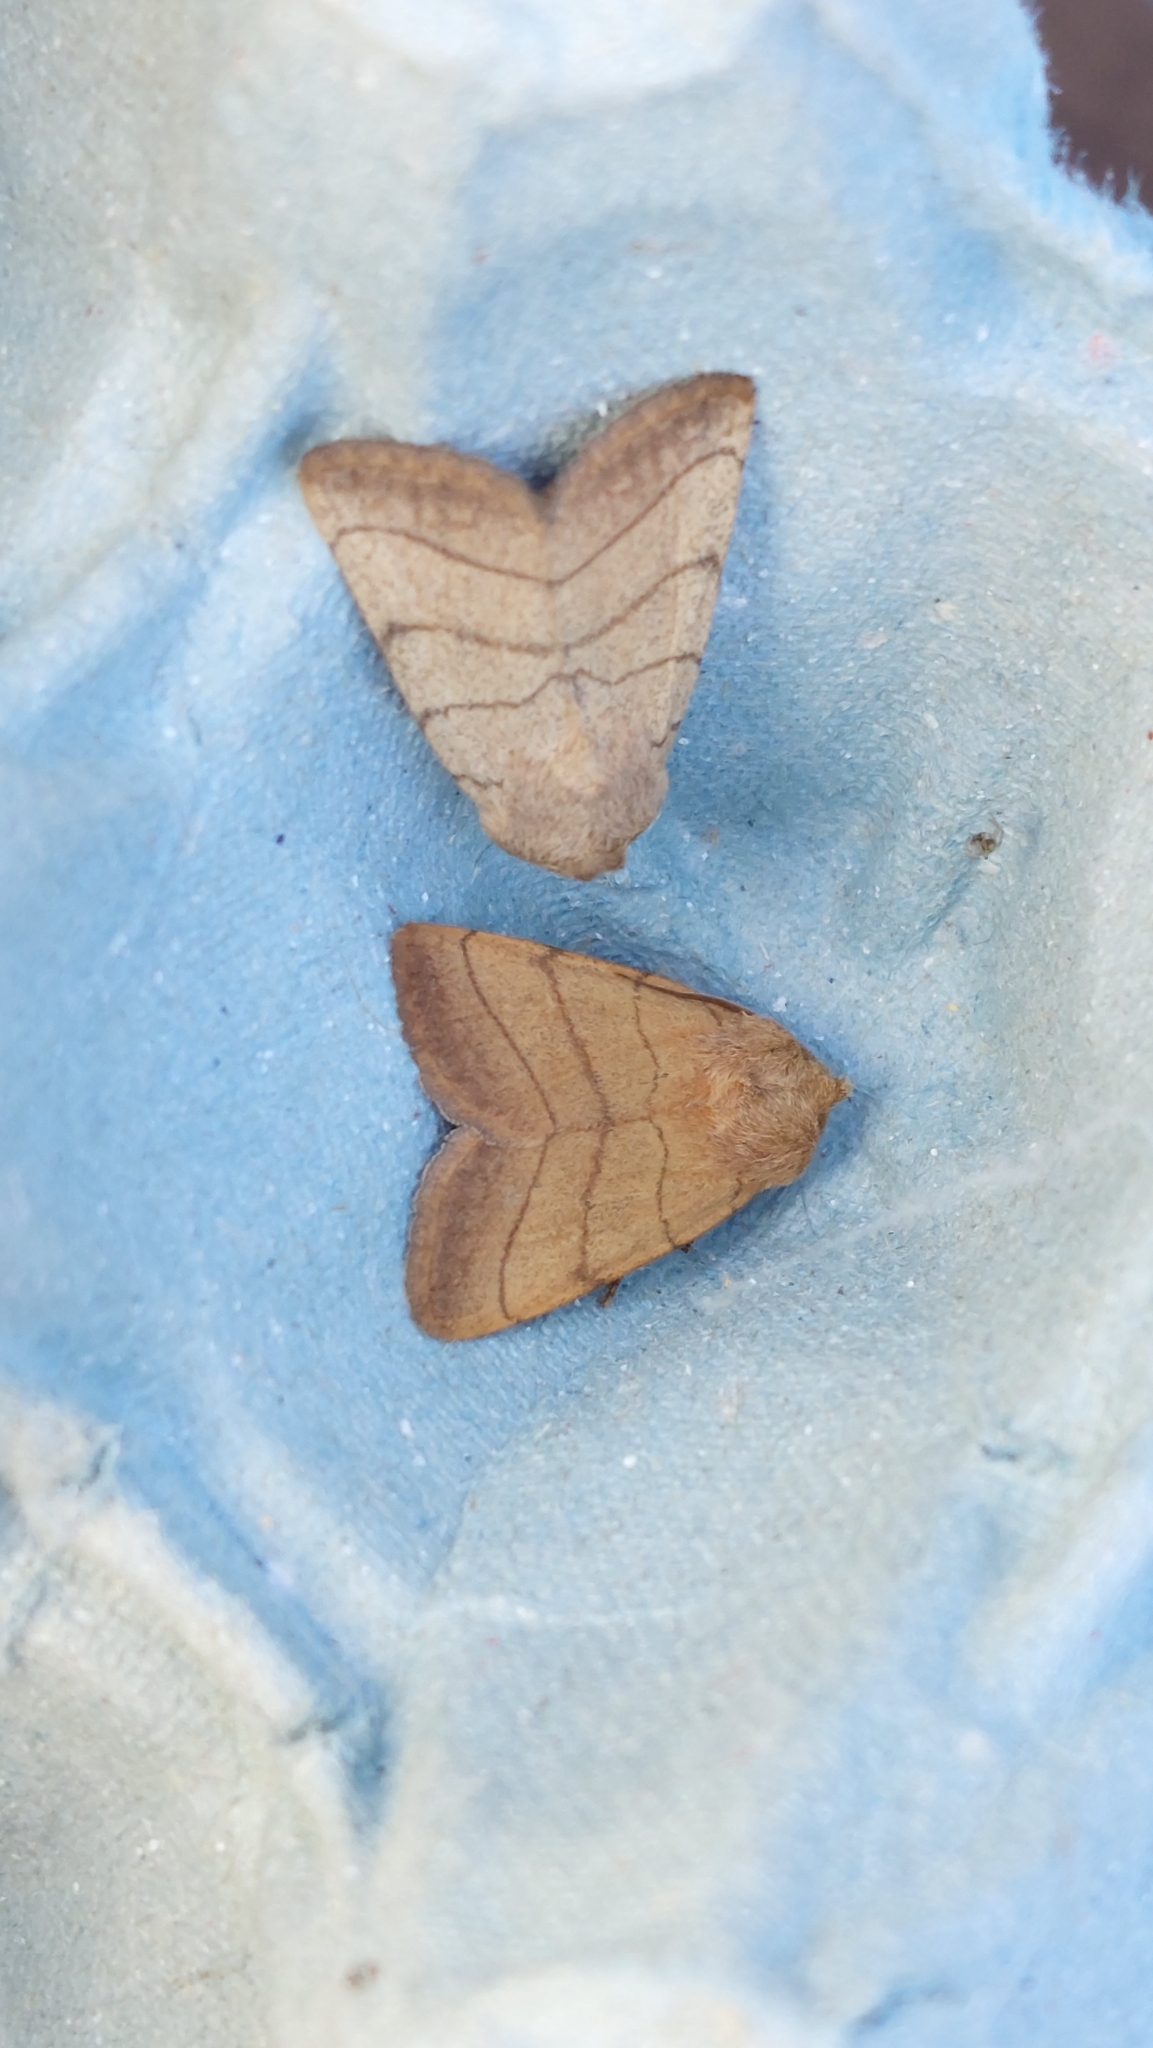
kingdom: Animalia
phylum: Arthropoda
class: Insecta
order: Lepidoptera
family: Noctuidae
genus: Charanyca
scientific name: Charanyca trigrammica
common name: Treble lines
